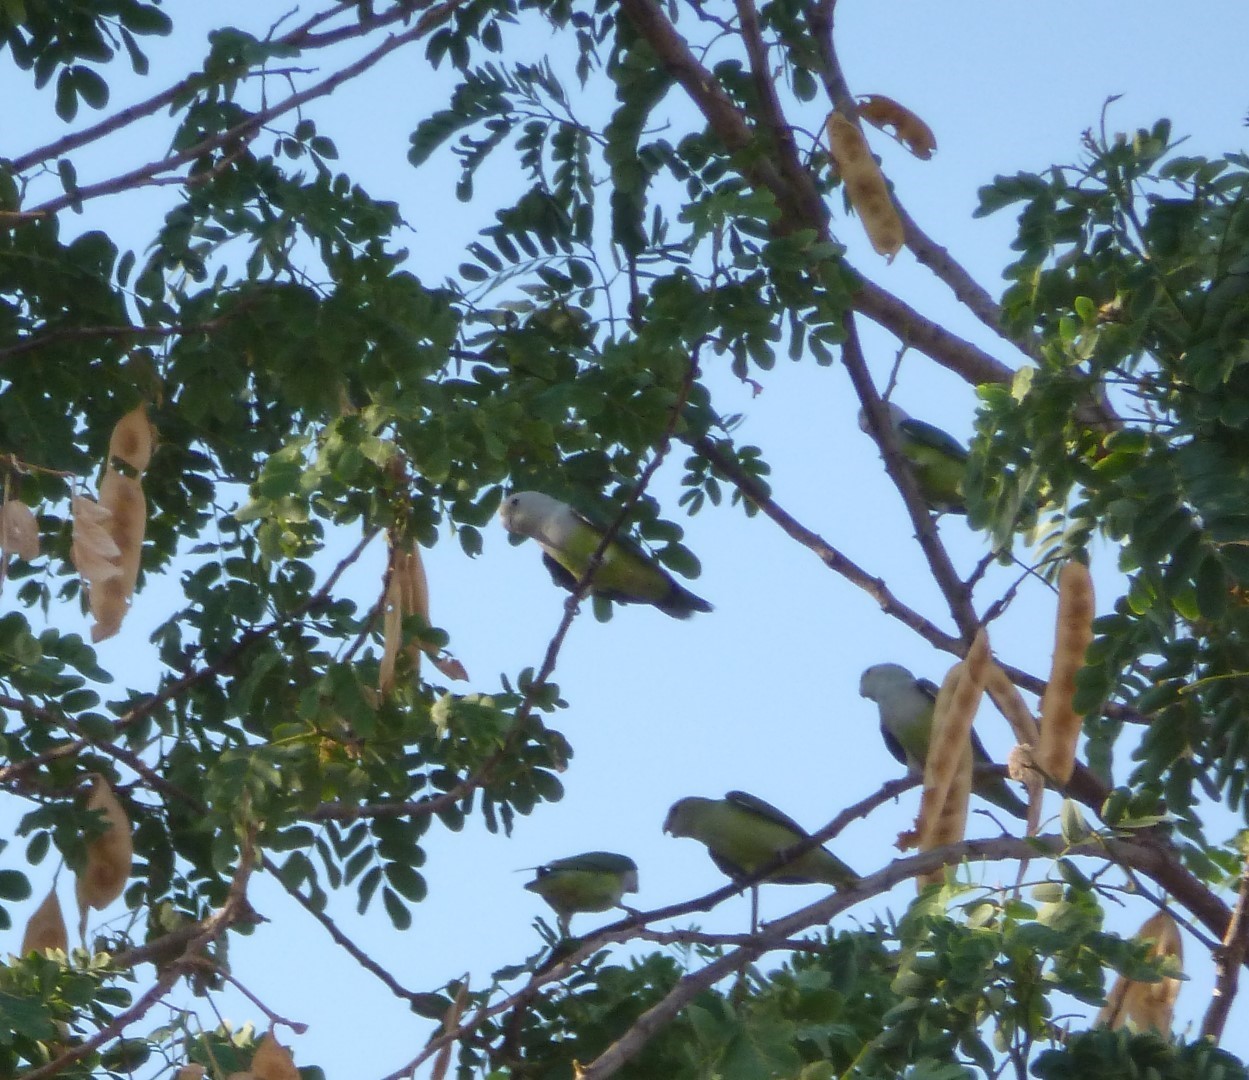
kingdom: Animalia
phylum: Chordata
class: Aves
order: Psittaciformes
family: Psittacidae
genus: Agapornis
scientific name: Agapornis canus
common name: Grey-headed lovebird
